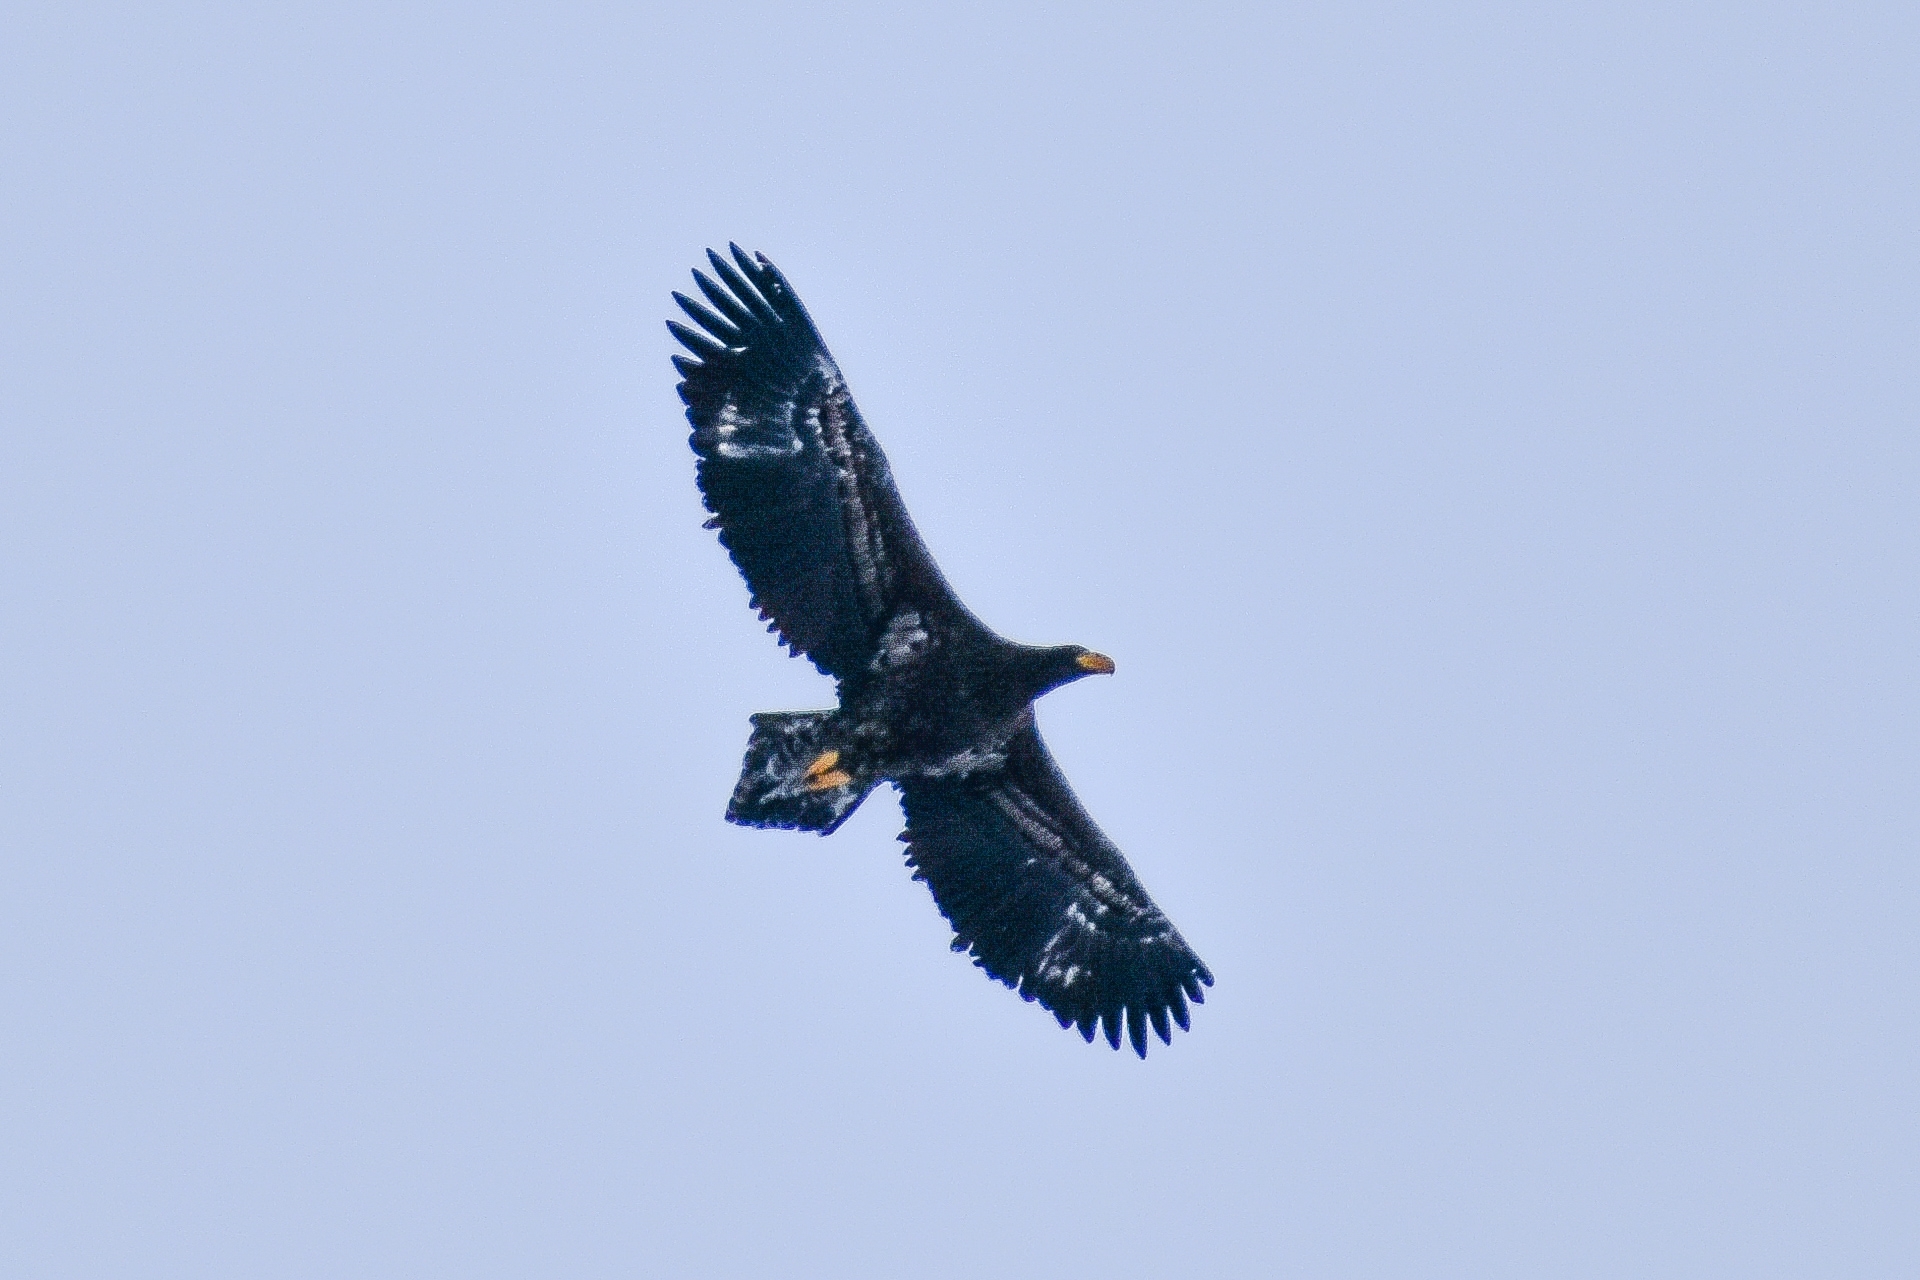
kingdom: Animalia
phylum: Chordata
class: Aves
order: Accipitriformes
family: Accipitridae
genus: Haliaeetus
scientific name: Haliaeetus pelagicus
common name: Steller's sea eagle
